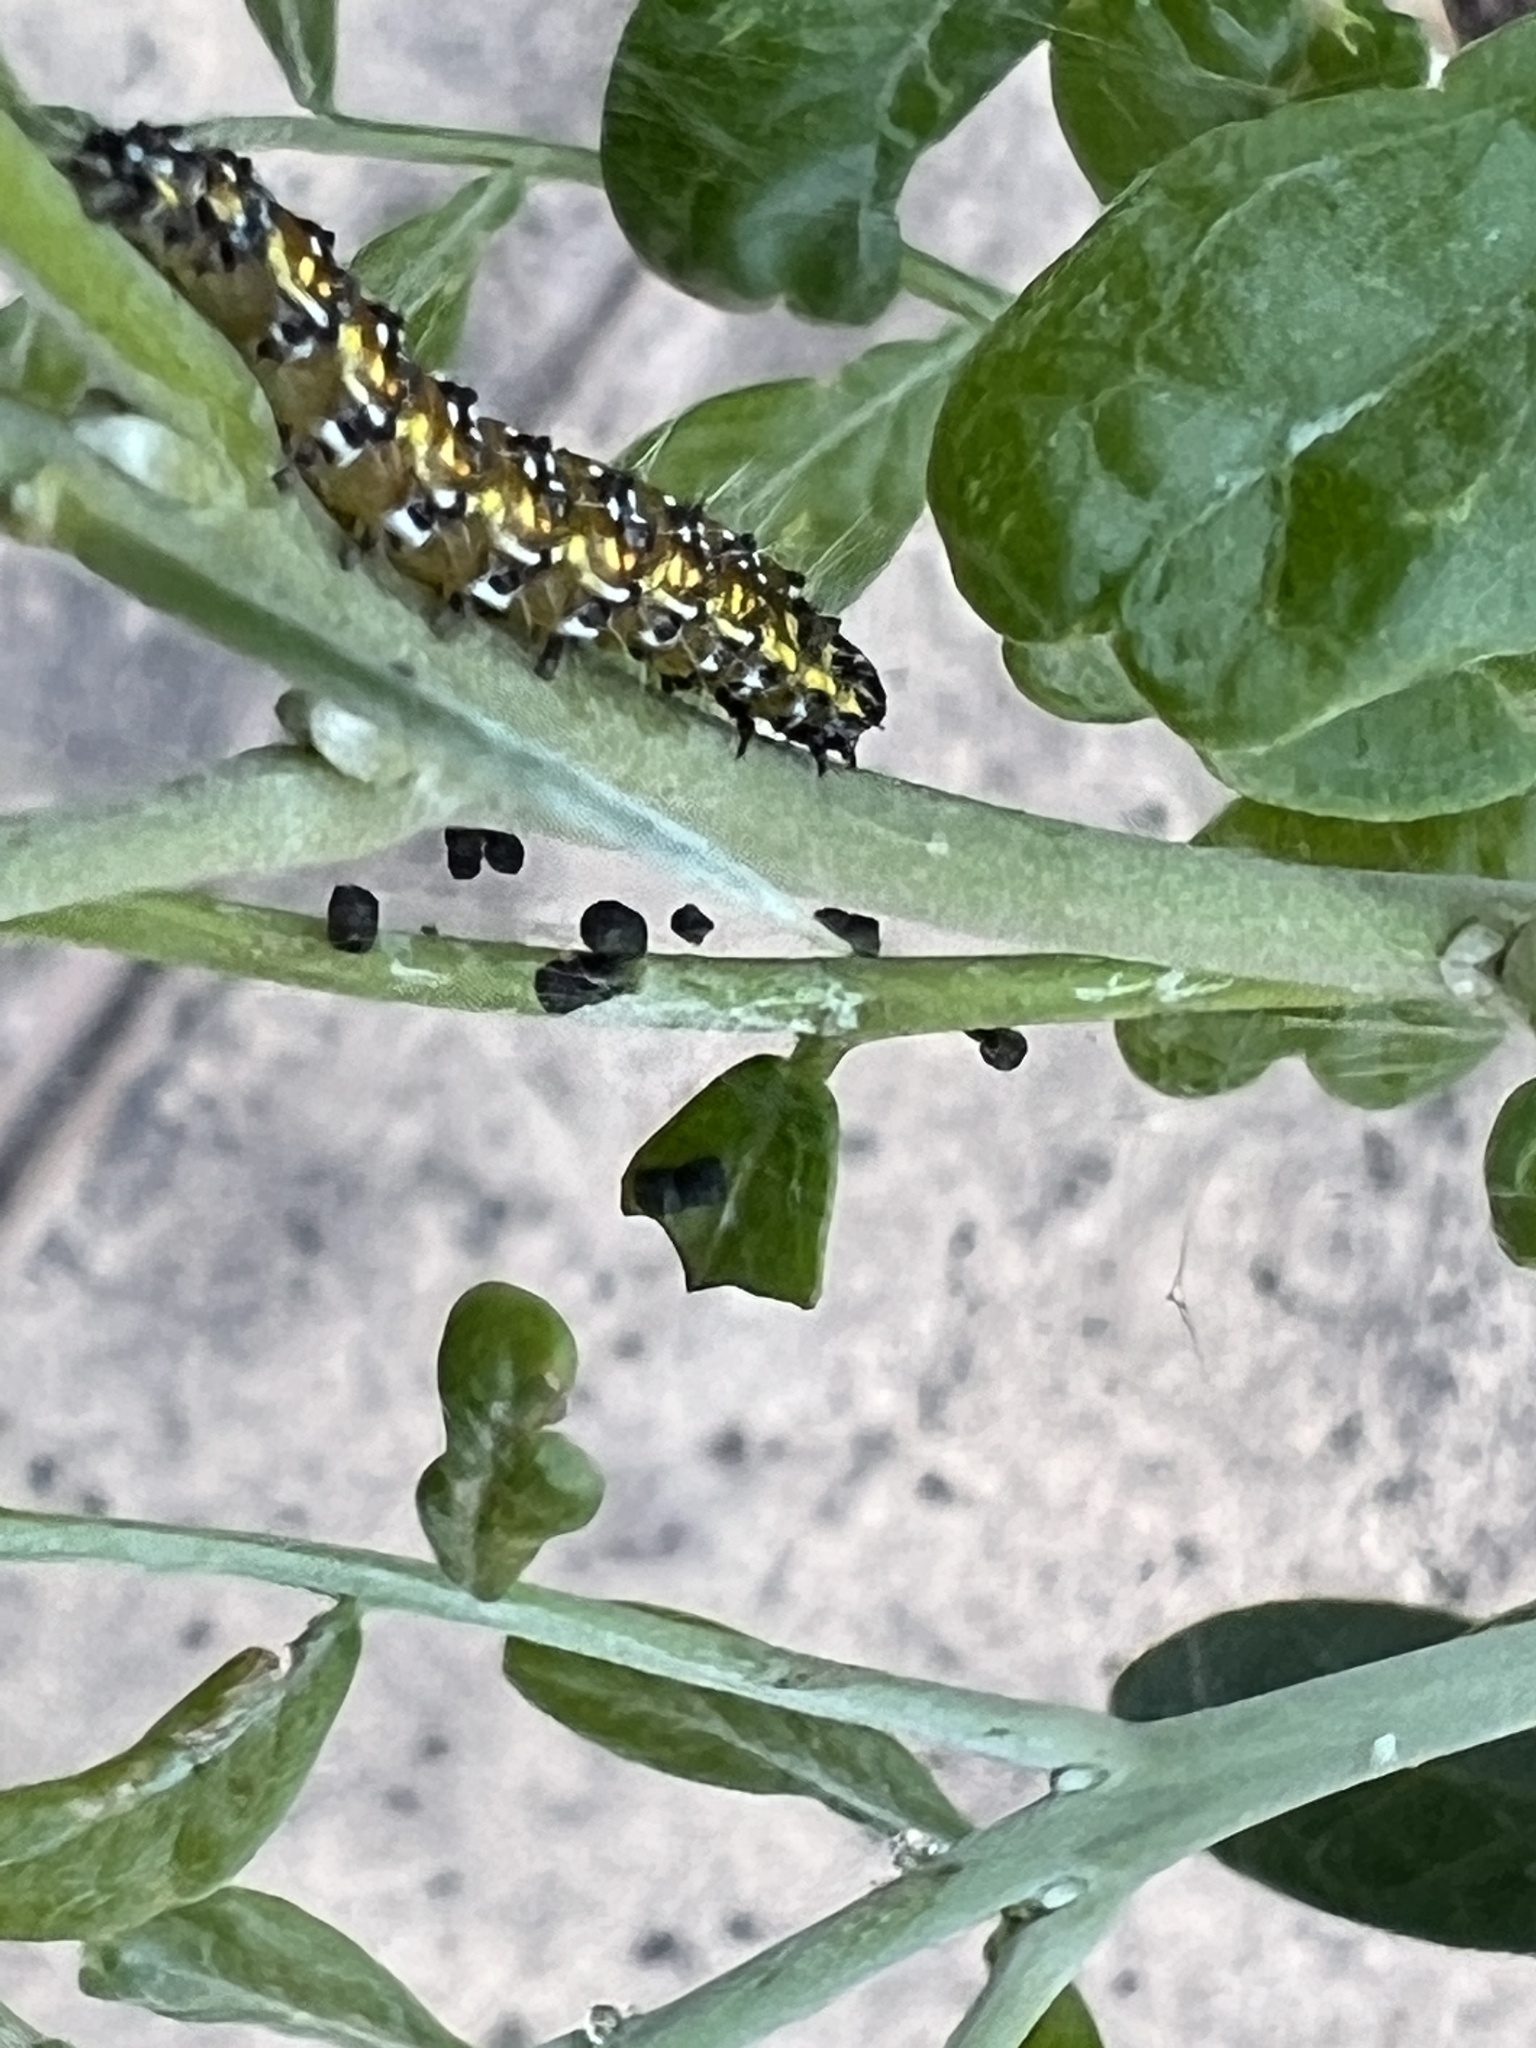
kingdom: Animalia
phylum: Arthropoda
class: Insecta
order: Lepidoptera
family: Crambidae
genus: Uresiphita
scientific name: Uresiphita reversalis
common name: Genista broom moth
